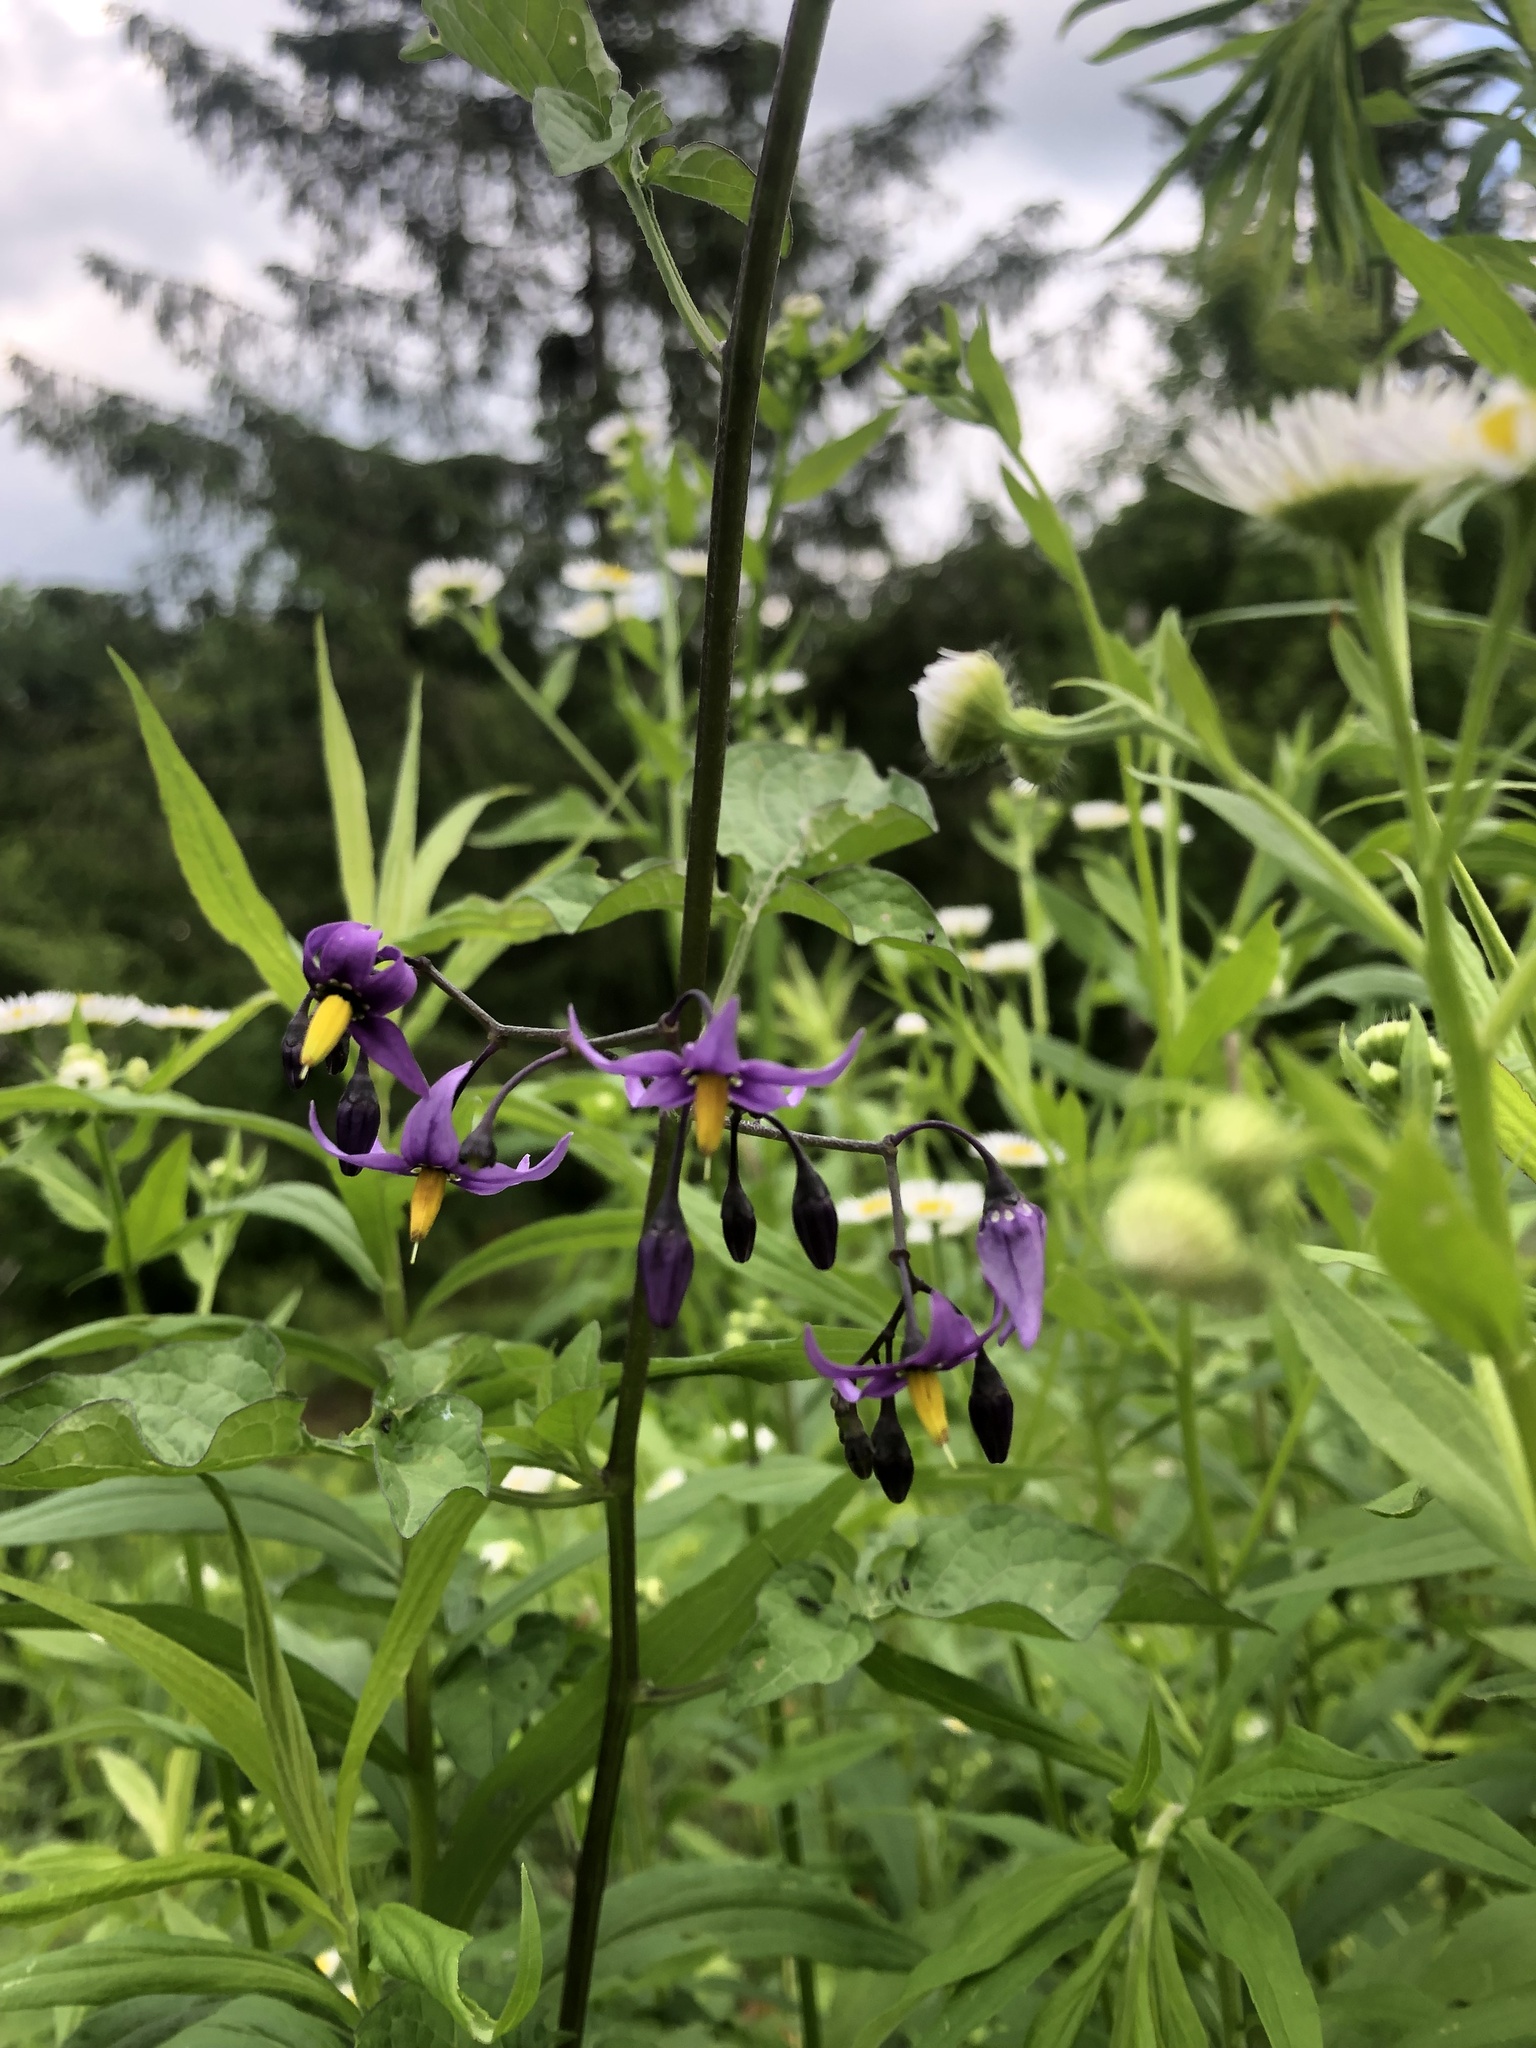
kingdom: Plantae
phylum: Tracheophyta
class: Magnoliopsida
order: Solanales
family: Solanaceae
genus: Solanum
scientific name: Solanum dulcamara
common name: Climbing nightshade
